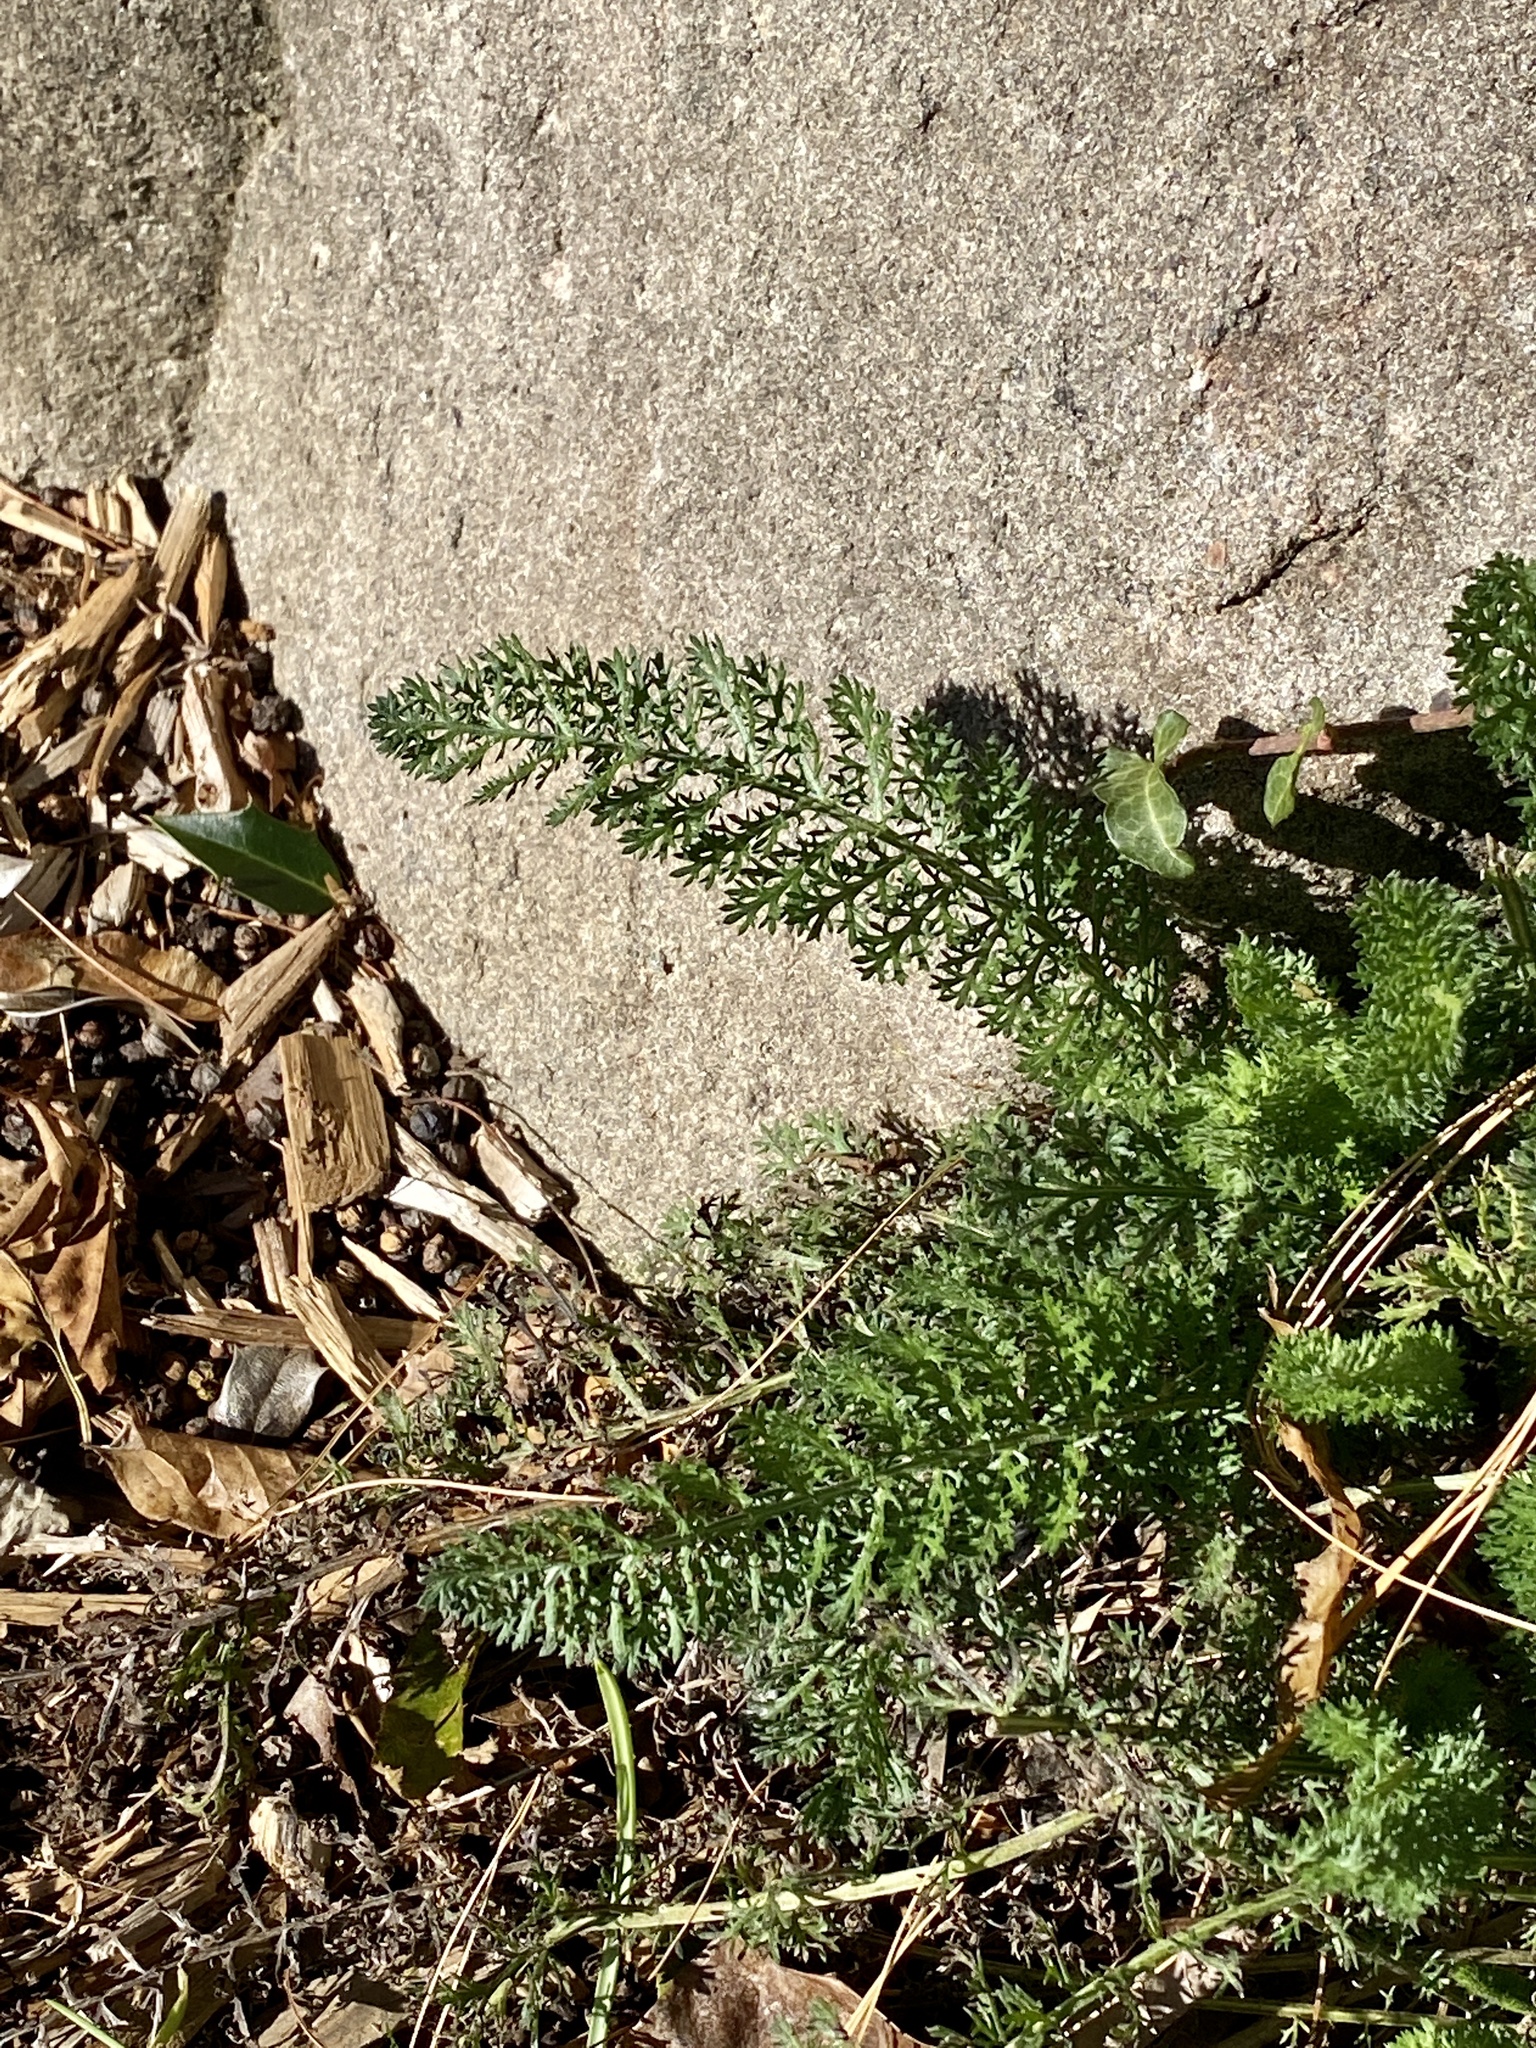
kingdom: Plantae
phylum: Tracheophyta
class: Magnoliopsida
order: Asterales
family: Asteraceae
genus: Achillea
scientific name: Achillea millefolium
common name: Yarrow
